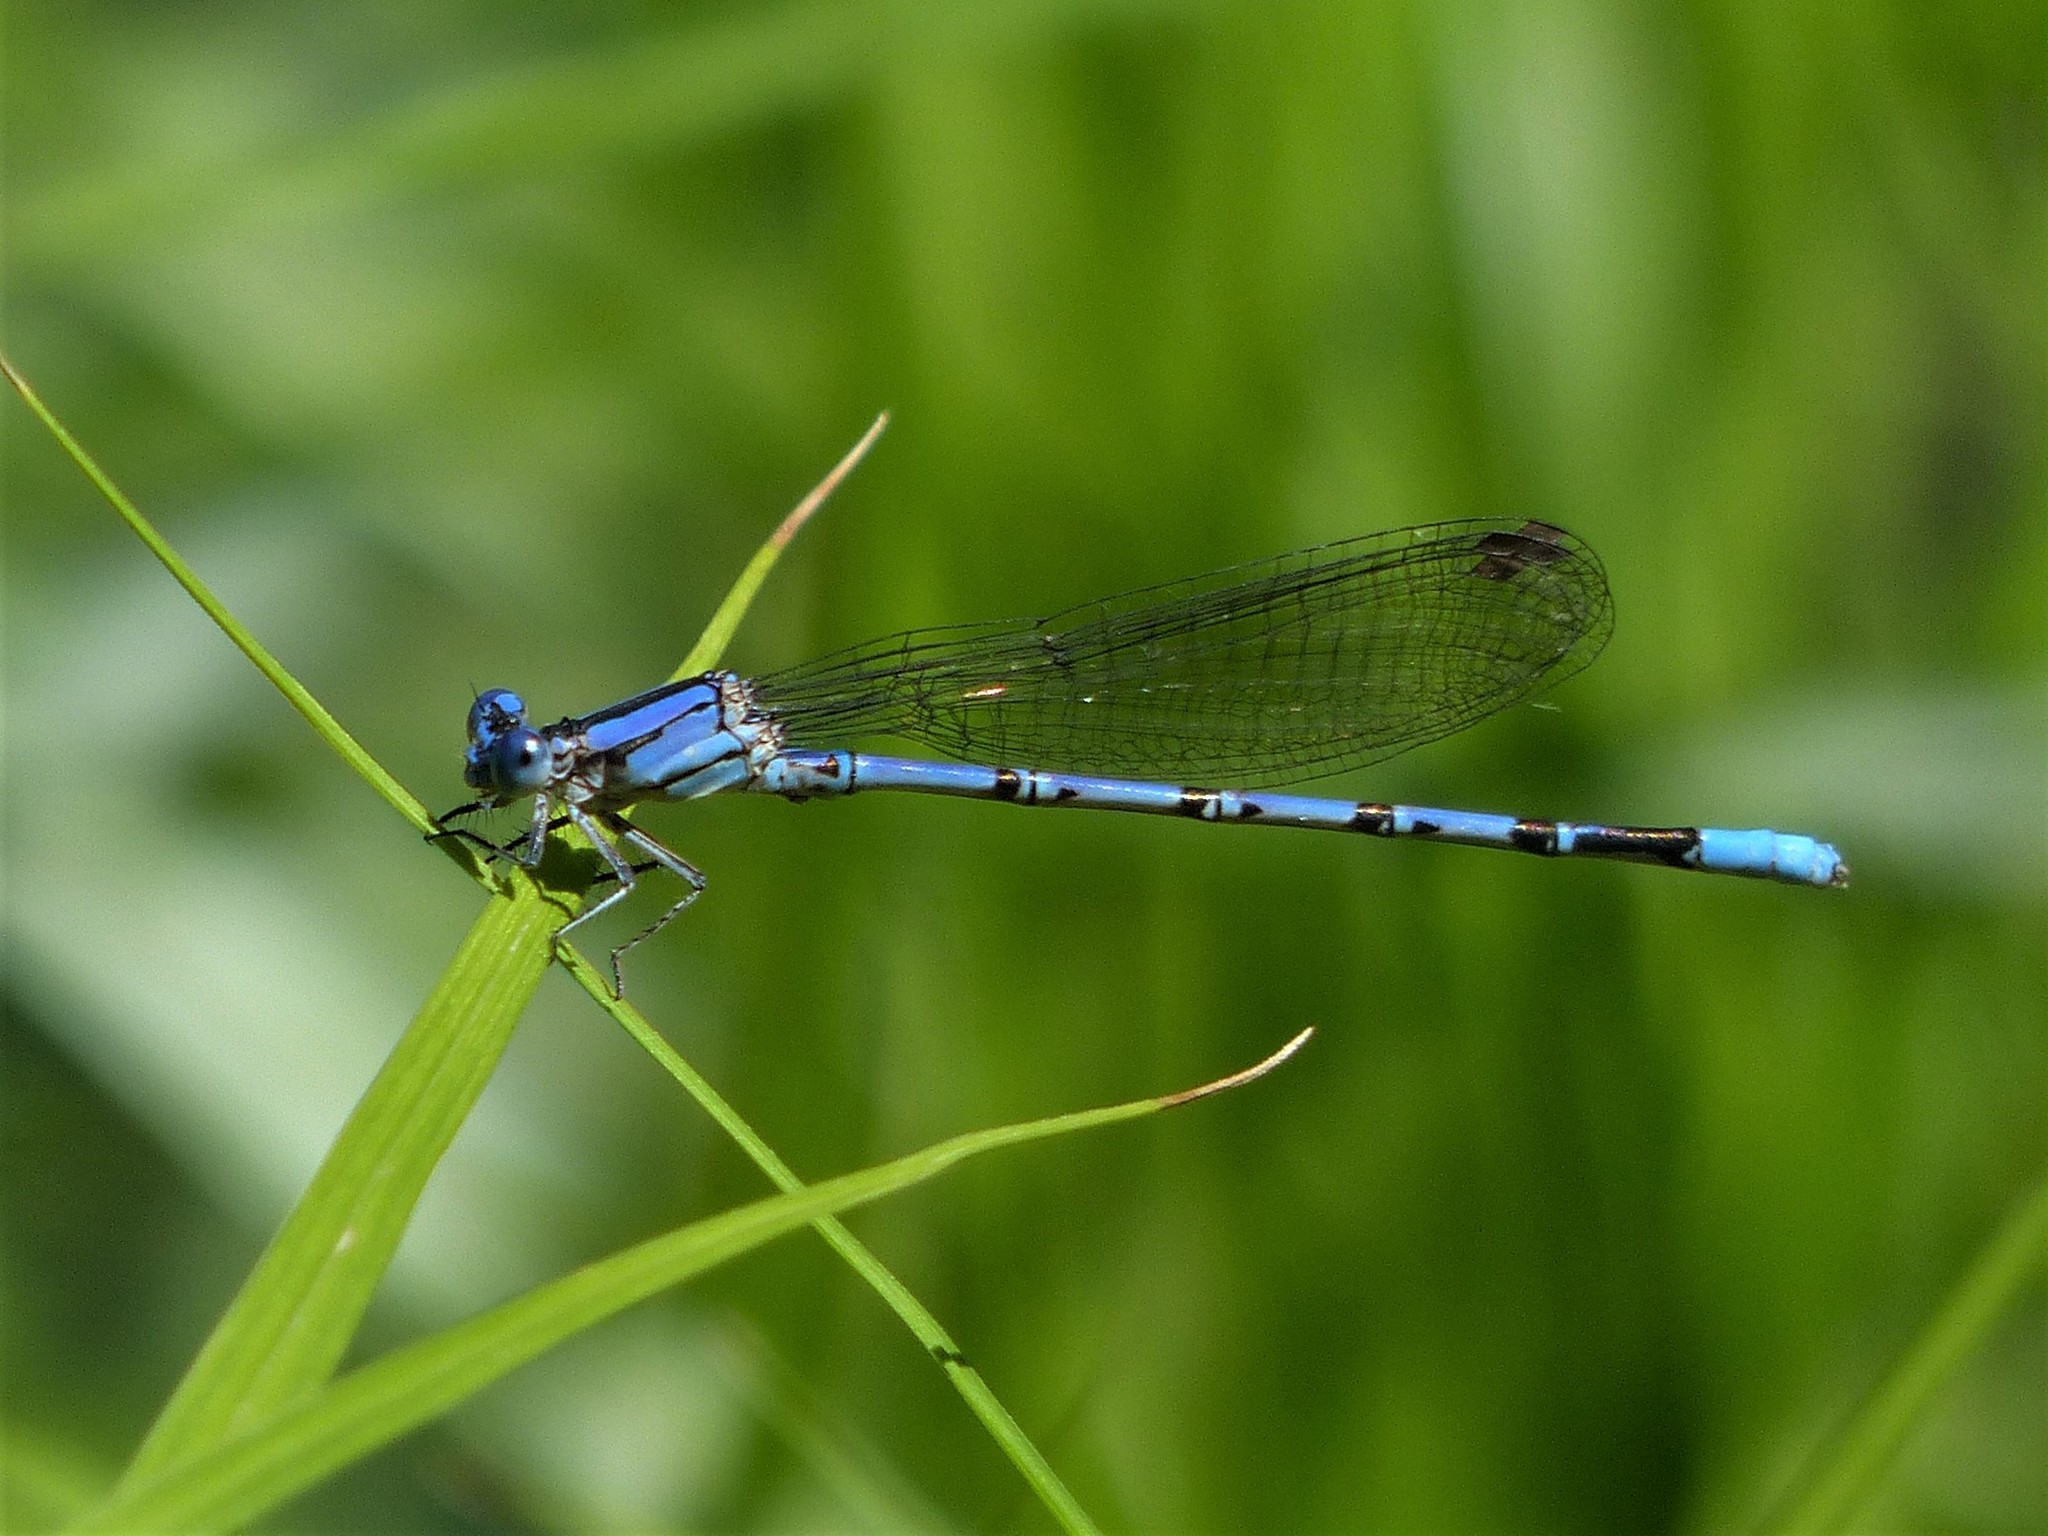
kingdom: Animalia
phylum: Arthropoda
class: Insecta
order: Odonata
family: Coenagrionidae
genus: Argia
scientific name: Argia funebris
